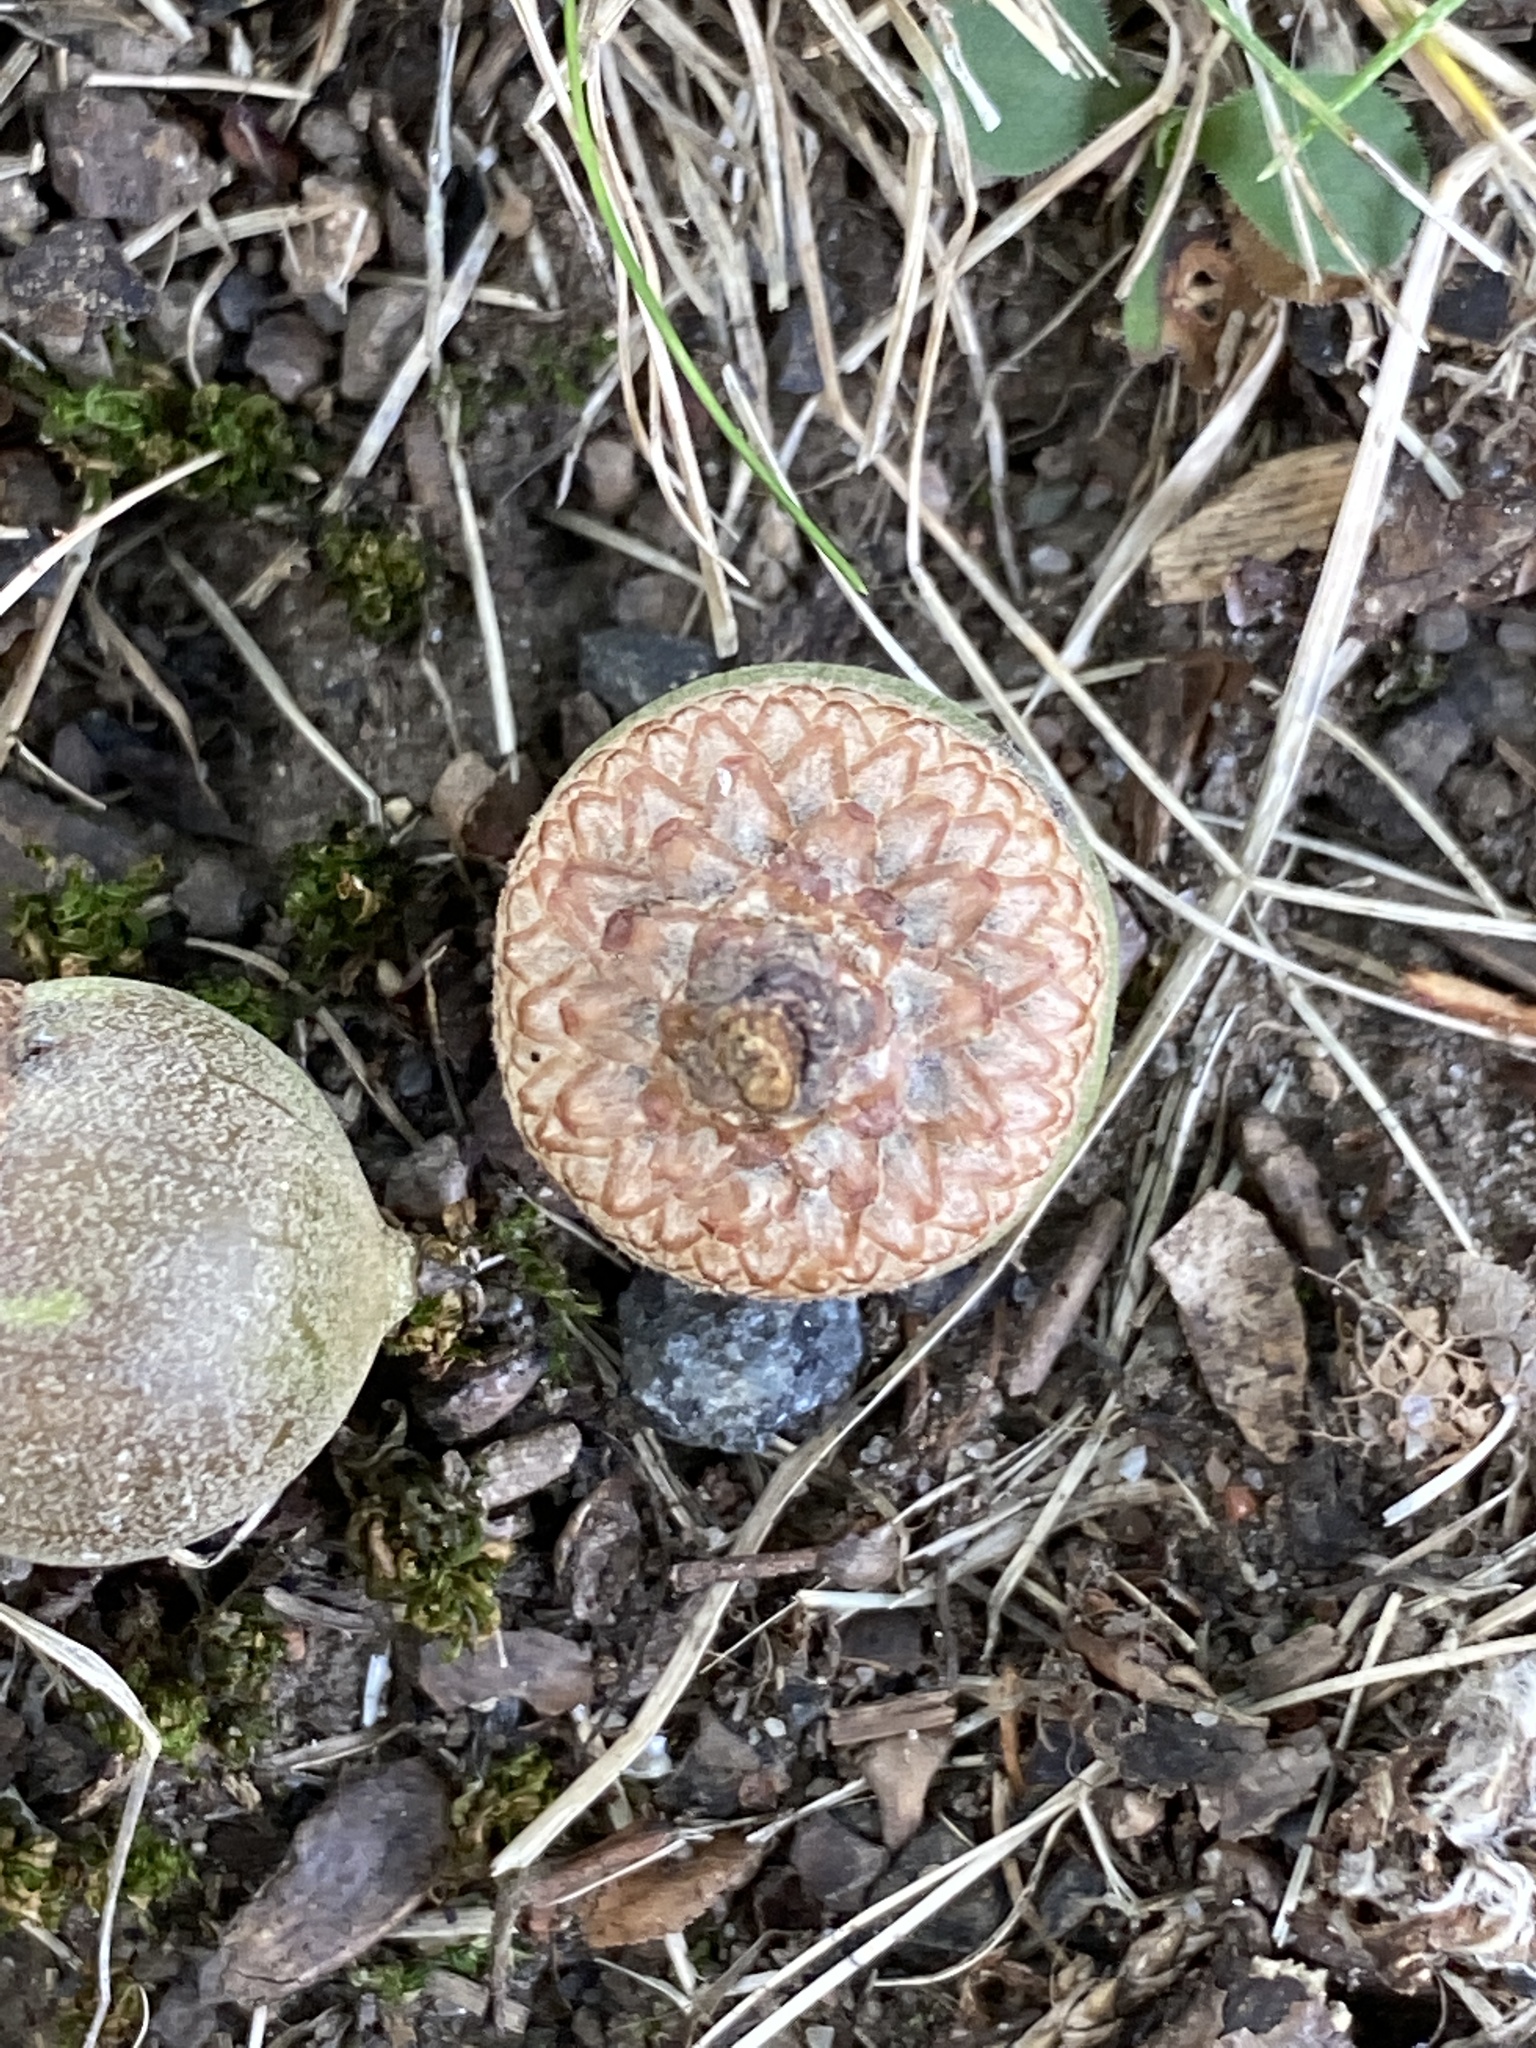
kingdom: Plantae
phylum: Tracheophyta
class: Magnoliopsida
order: Fagales
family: Fagaceae
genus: Quercus
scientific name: Quercus palustris
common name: Pin oak
